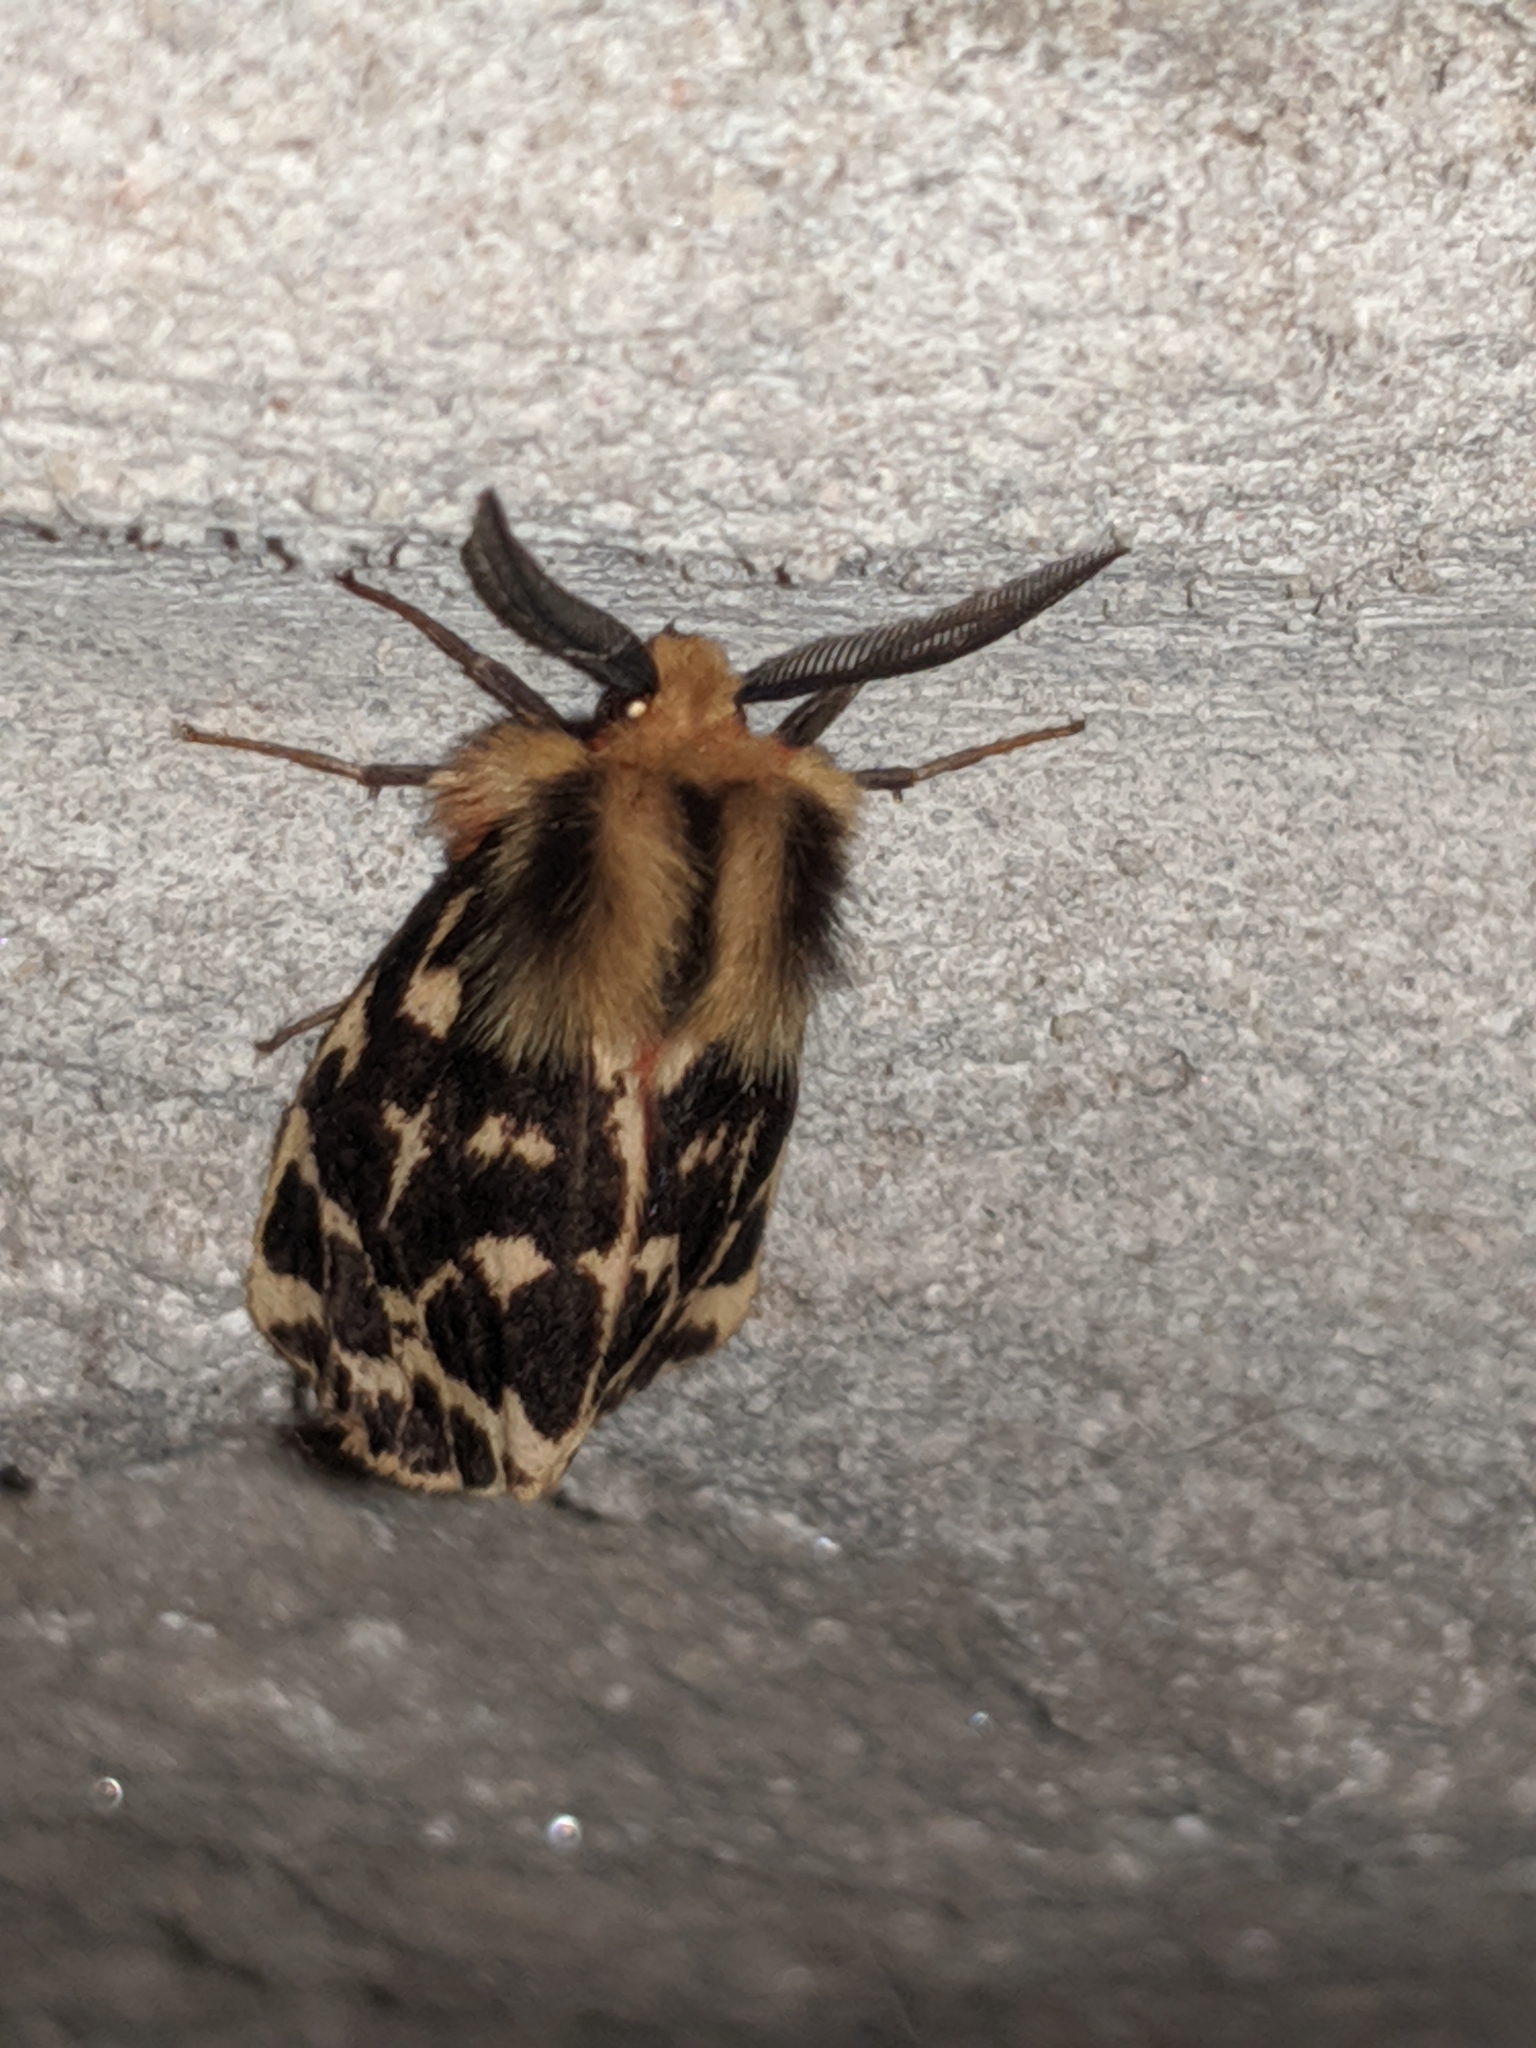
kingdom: Animalia
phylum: Arthropoda
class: Insecta
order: Lepidoptera
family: Erebidae
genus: Ardices
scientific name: Ardices curvata
